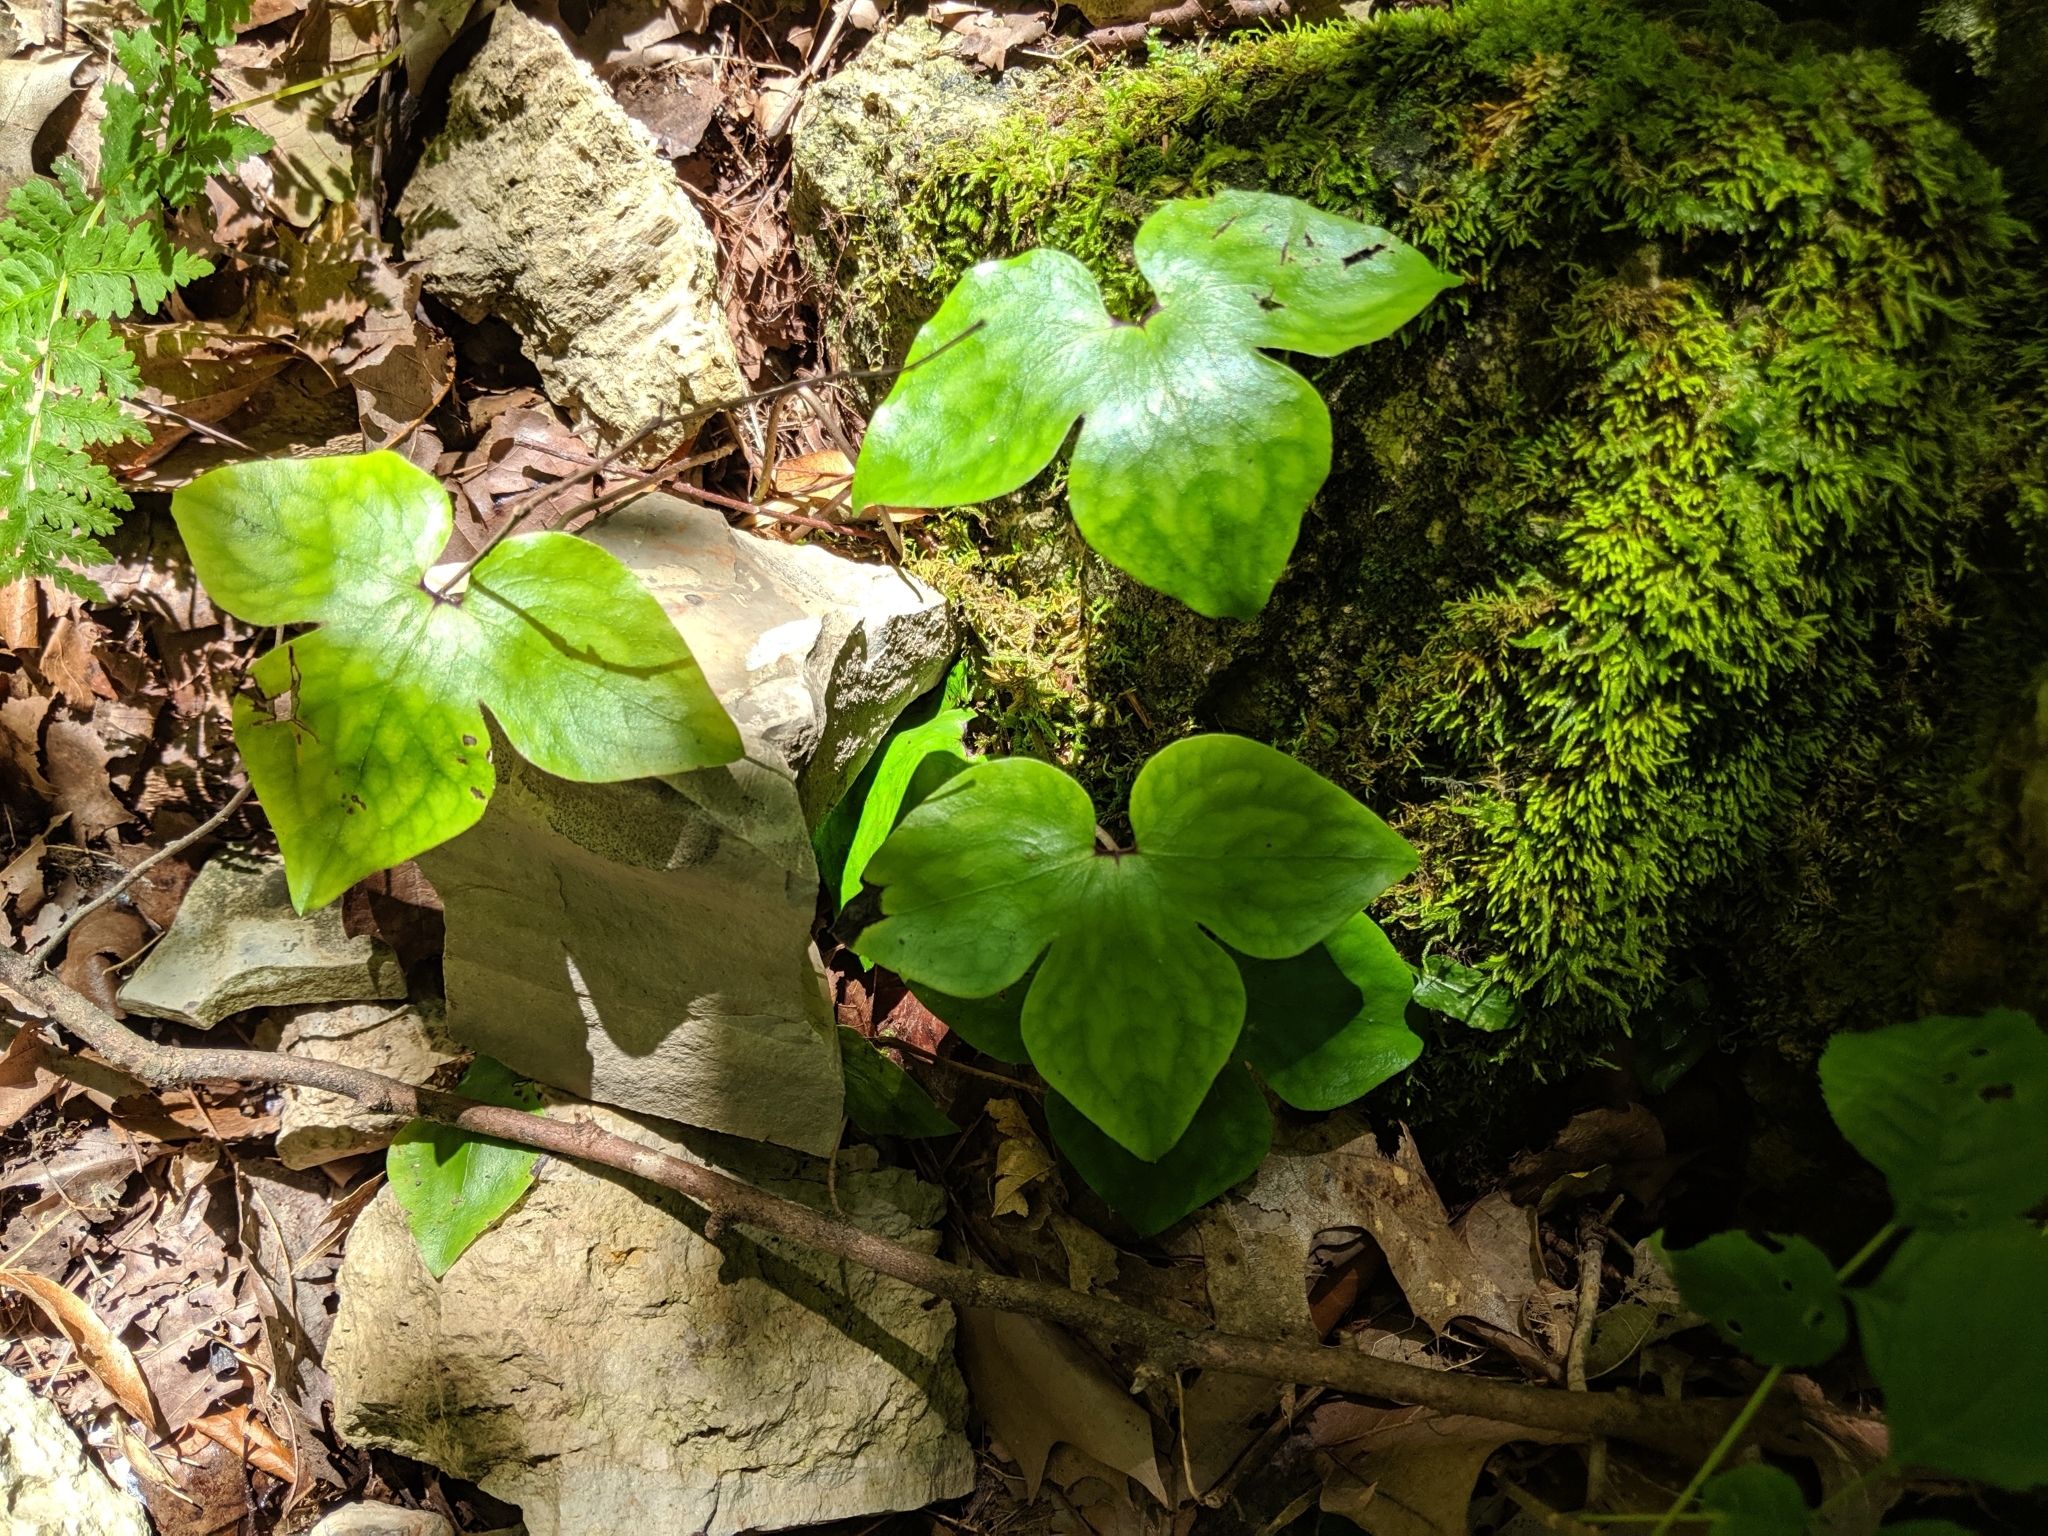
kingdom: Plantae
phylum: Tracheophyta
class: Magnoliopsida
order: Ranunculales
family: Ranunculaceae
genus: Hepatica
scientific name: Hepatica acutiloba
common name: Sharp-lobed hepatica
